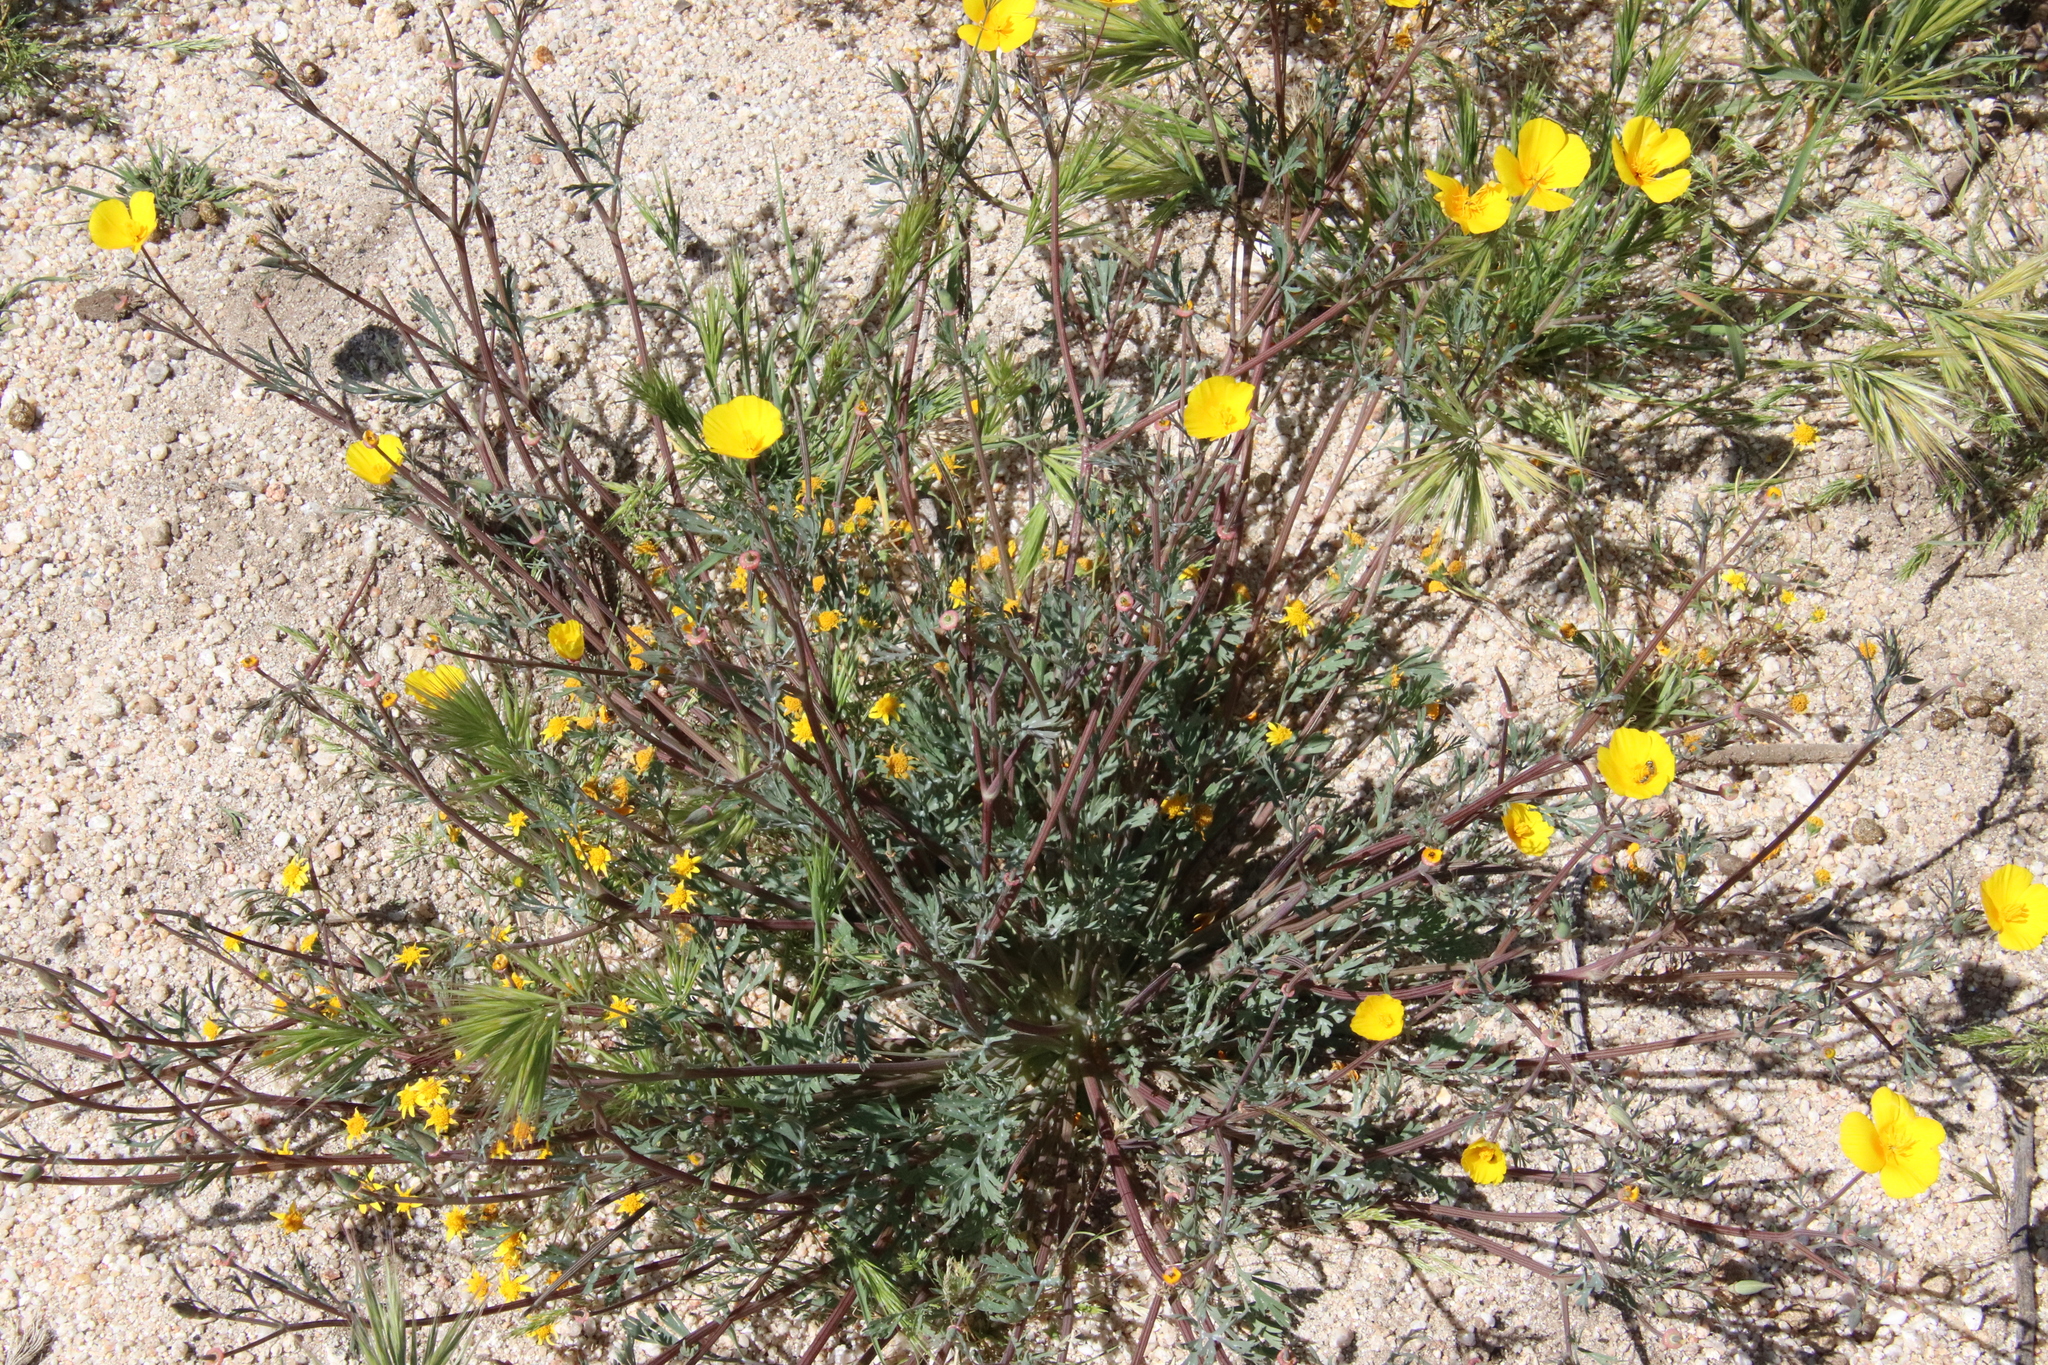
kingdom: Plantae
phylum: Tracheophyta
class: Magnoliopsida
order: Ranunculales
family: Papaveraceae
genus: Eschscholzia
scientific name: Eschscholzia californica
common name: California poppy
